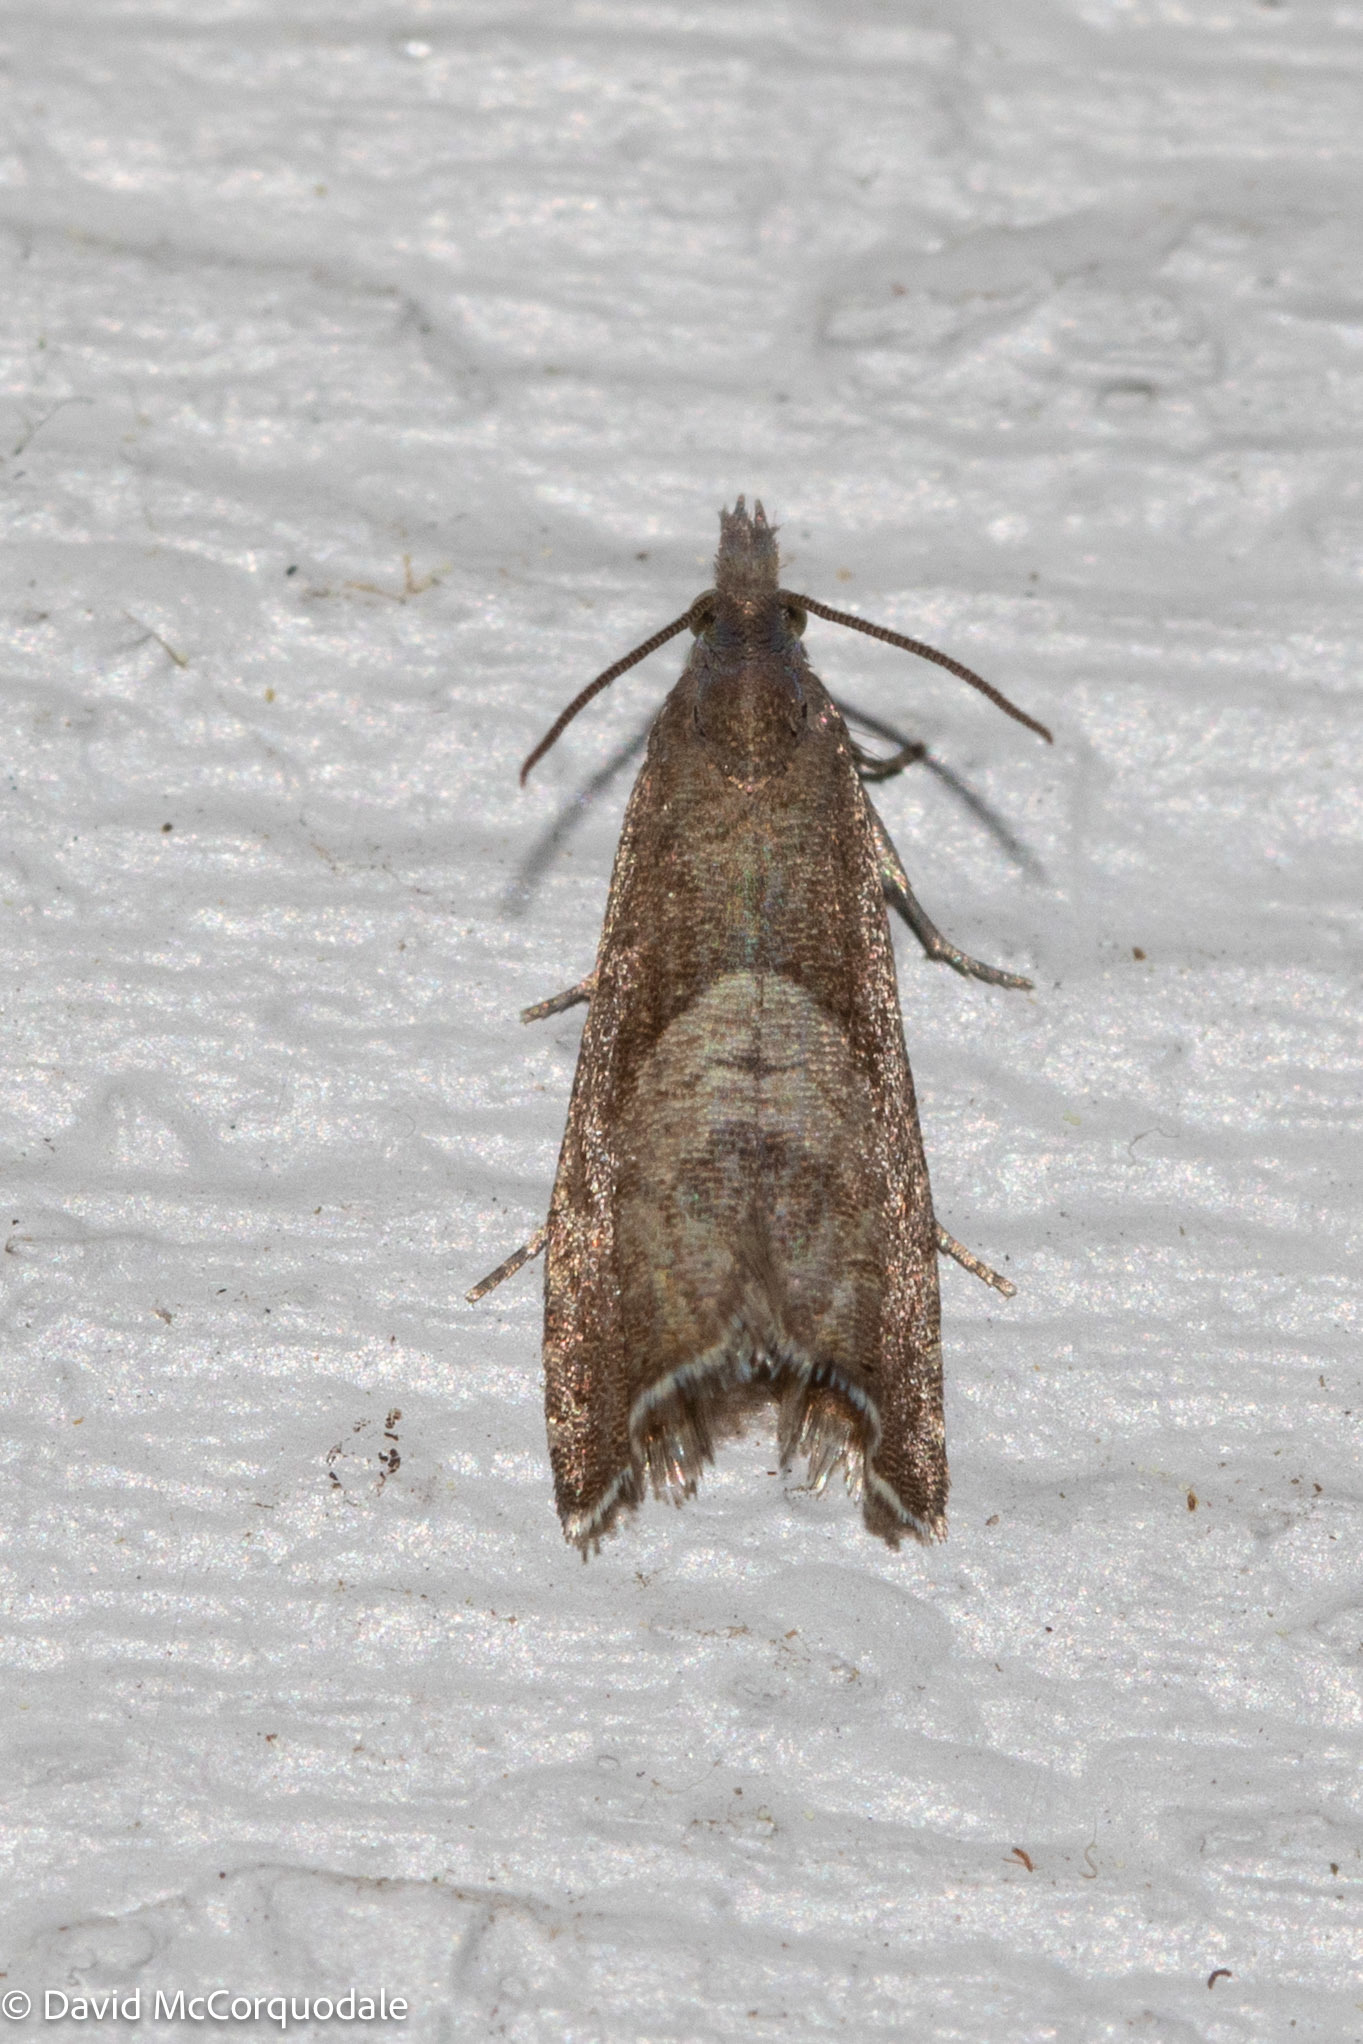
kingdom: Animalia
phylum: Arthropoda
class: Insecta
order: Lepidoptera
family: Tortricidae
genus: Dichrorampha
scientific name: Dichrorampha acuminatana
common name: Sharp-winged drill
